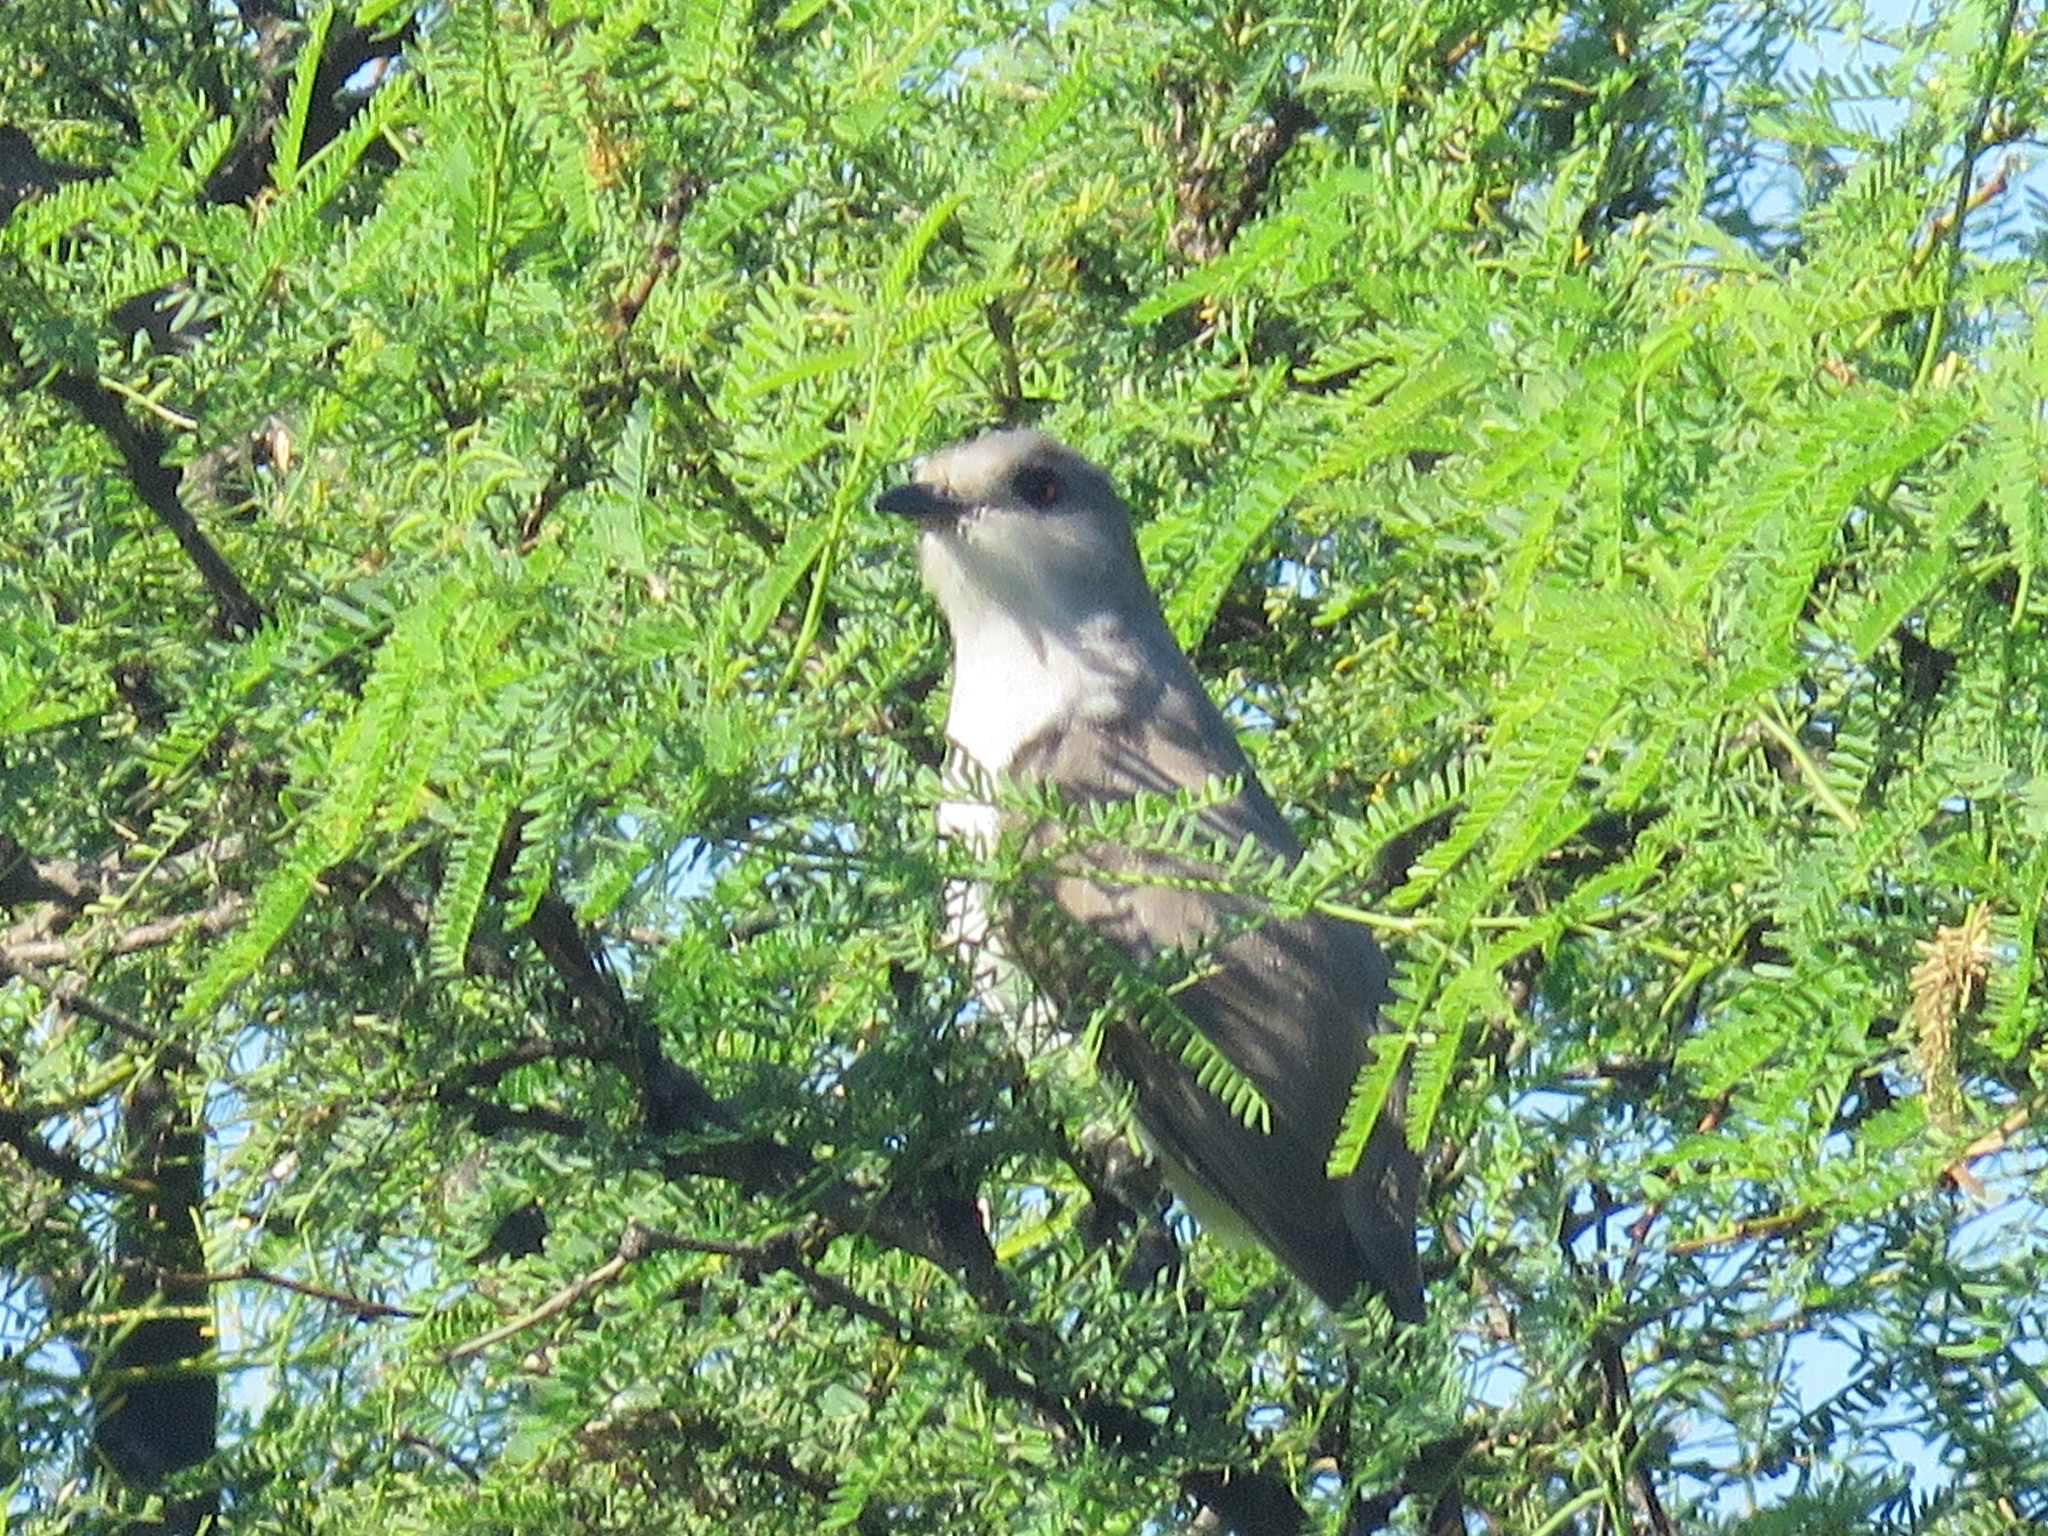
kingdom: Animalia
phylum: Chordata
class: Aves
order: Cuculiformes
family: Cuculidae
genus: Coccyzus
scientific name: Coccyzus cinereus
